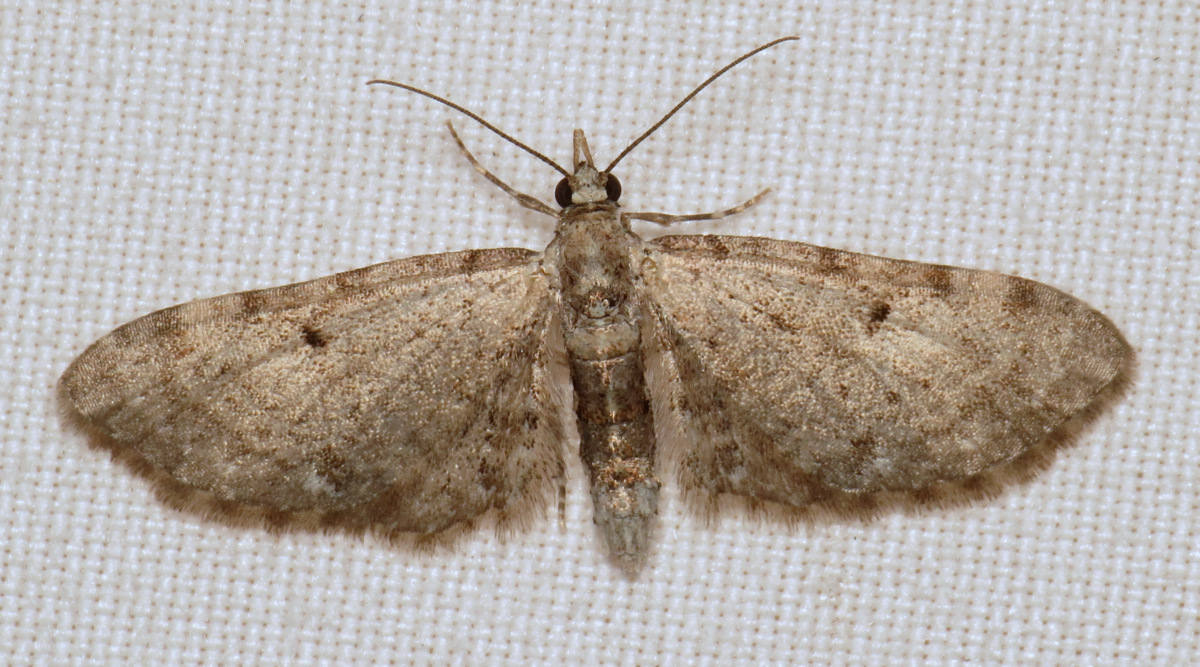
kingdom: Animalia
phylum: Arthropoda
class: Insecta
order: Lepidoptera
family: Geometridae
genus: Eupithecia
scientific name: Eupithecia
